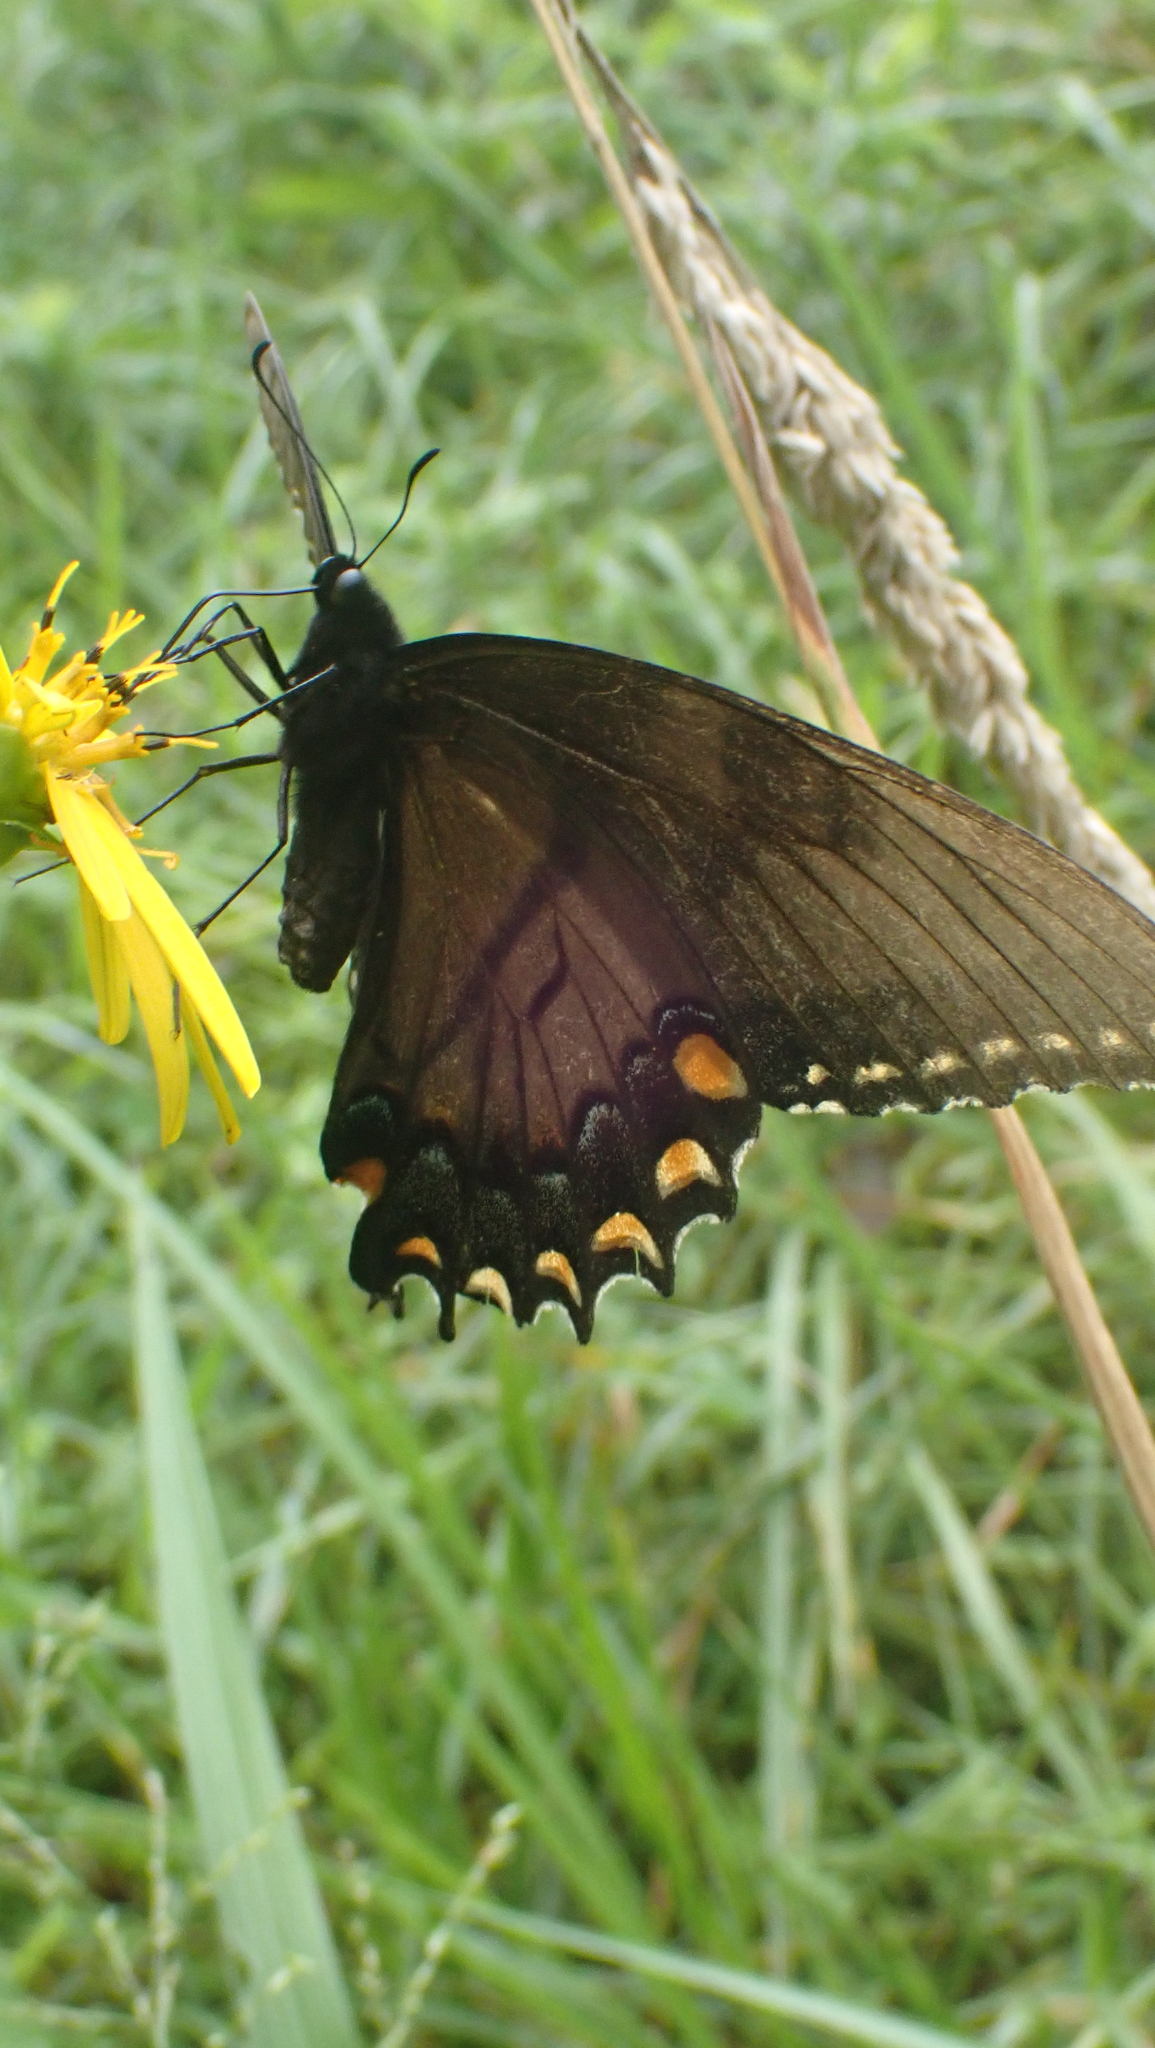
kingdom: Animalia
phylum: Arthropoda
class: Insecta
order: Lepidoptera
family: Papilionidae
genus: Papilio
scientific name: Papilio glaucus
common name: Tiger swallowtail
